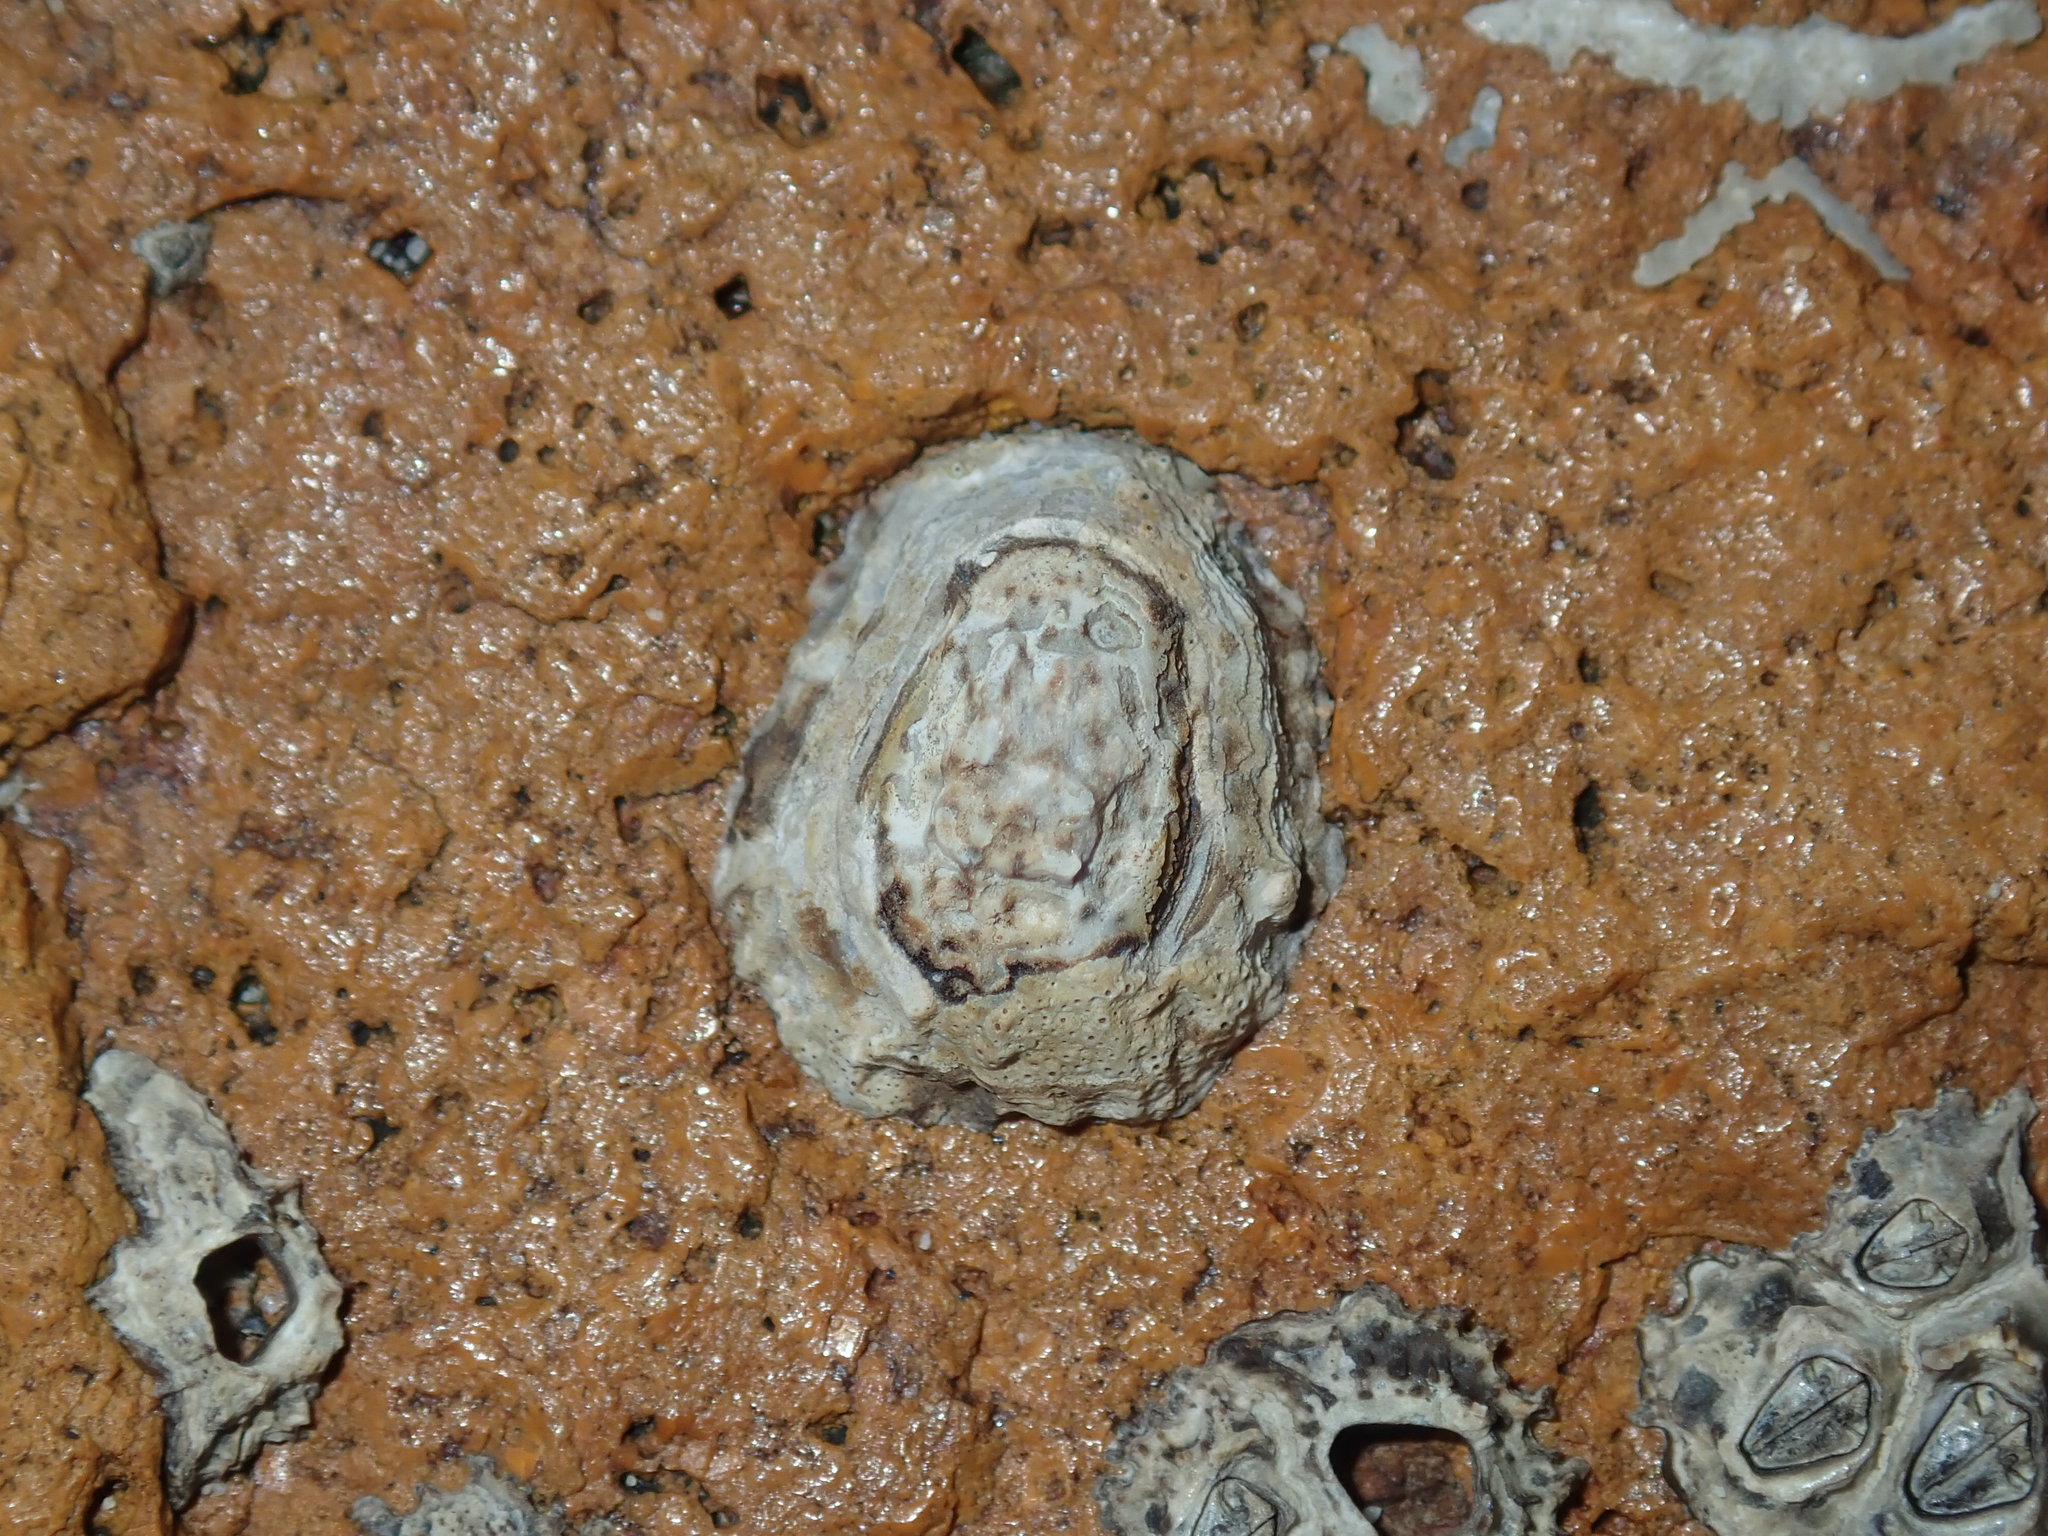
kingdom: Animalia
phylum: Mollusca
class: Gastropoda
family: Lottiidae
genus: Patelloida
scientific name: Patelloida latistrigata
